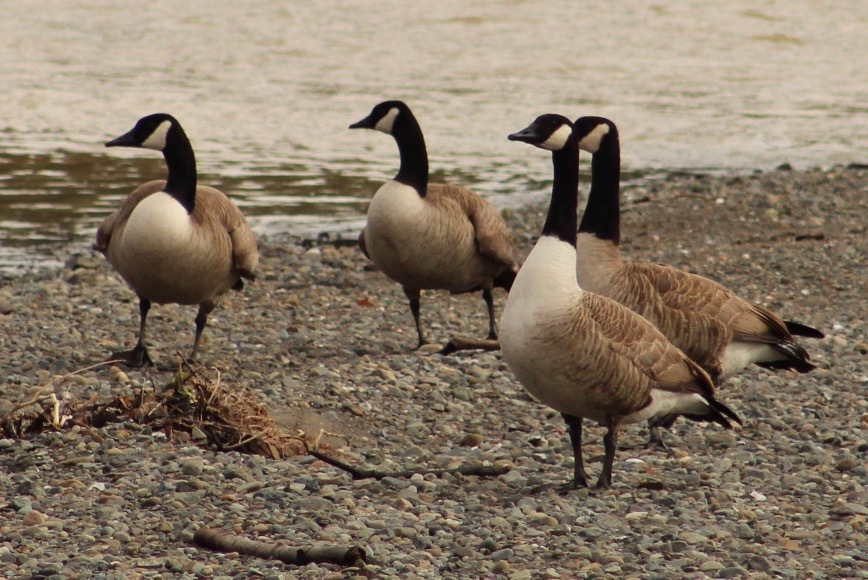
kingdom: Animalia
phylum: Chordata
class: Aves
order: Anseriformes
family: Anatidae
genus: Branta
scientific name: Branta canadensis
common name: Canada goose
